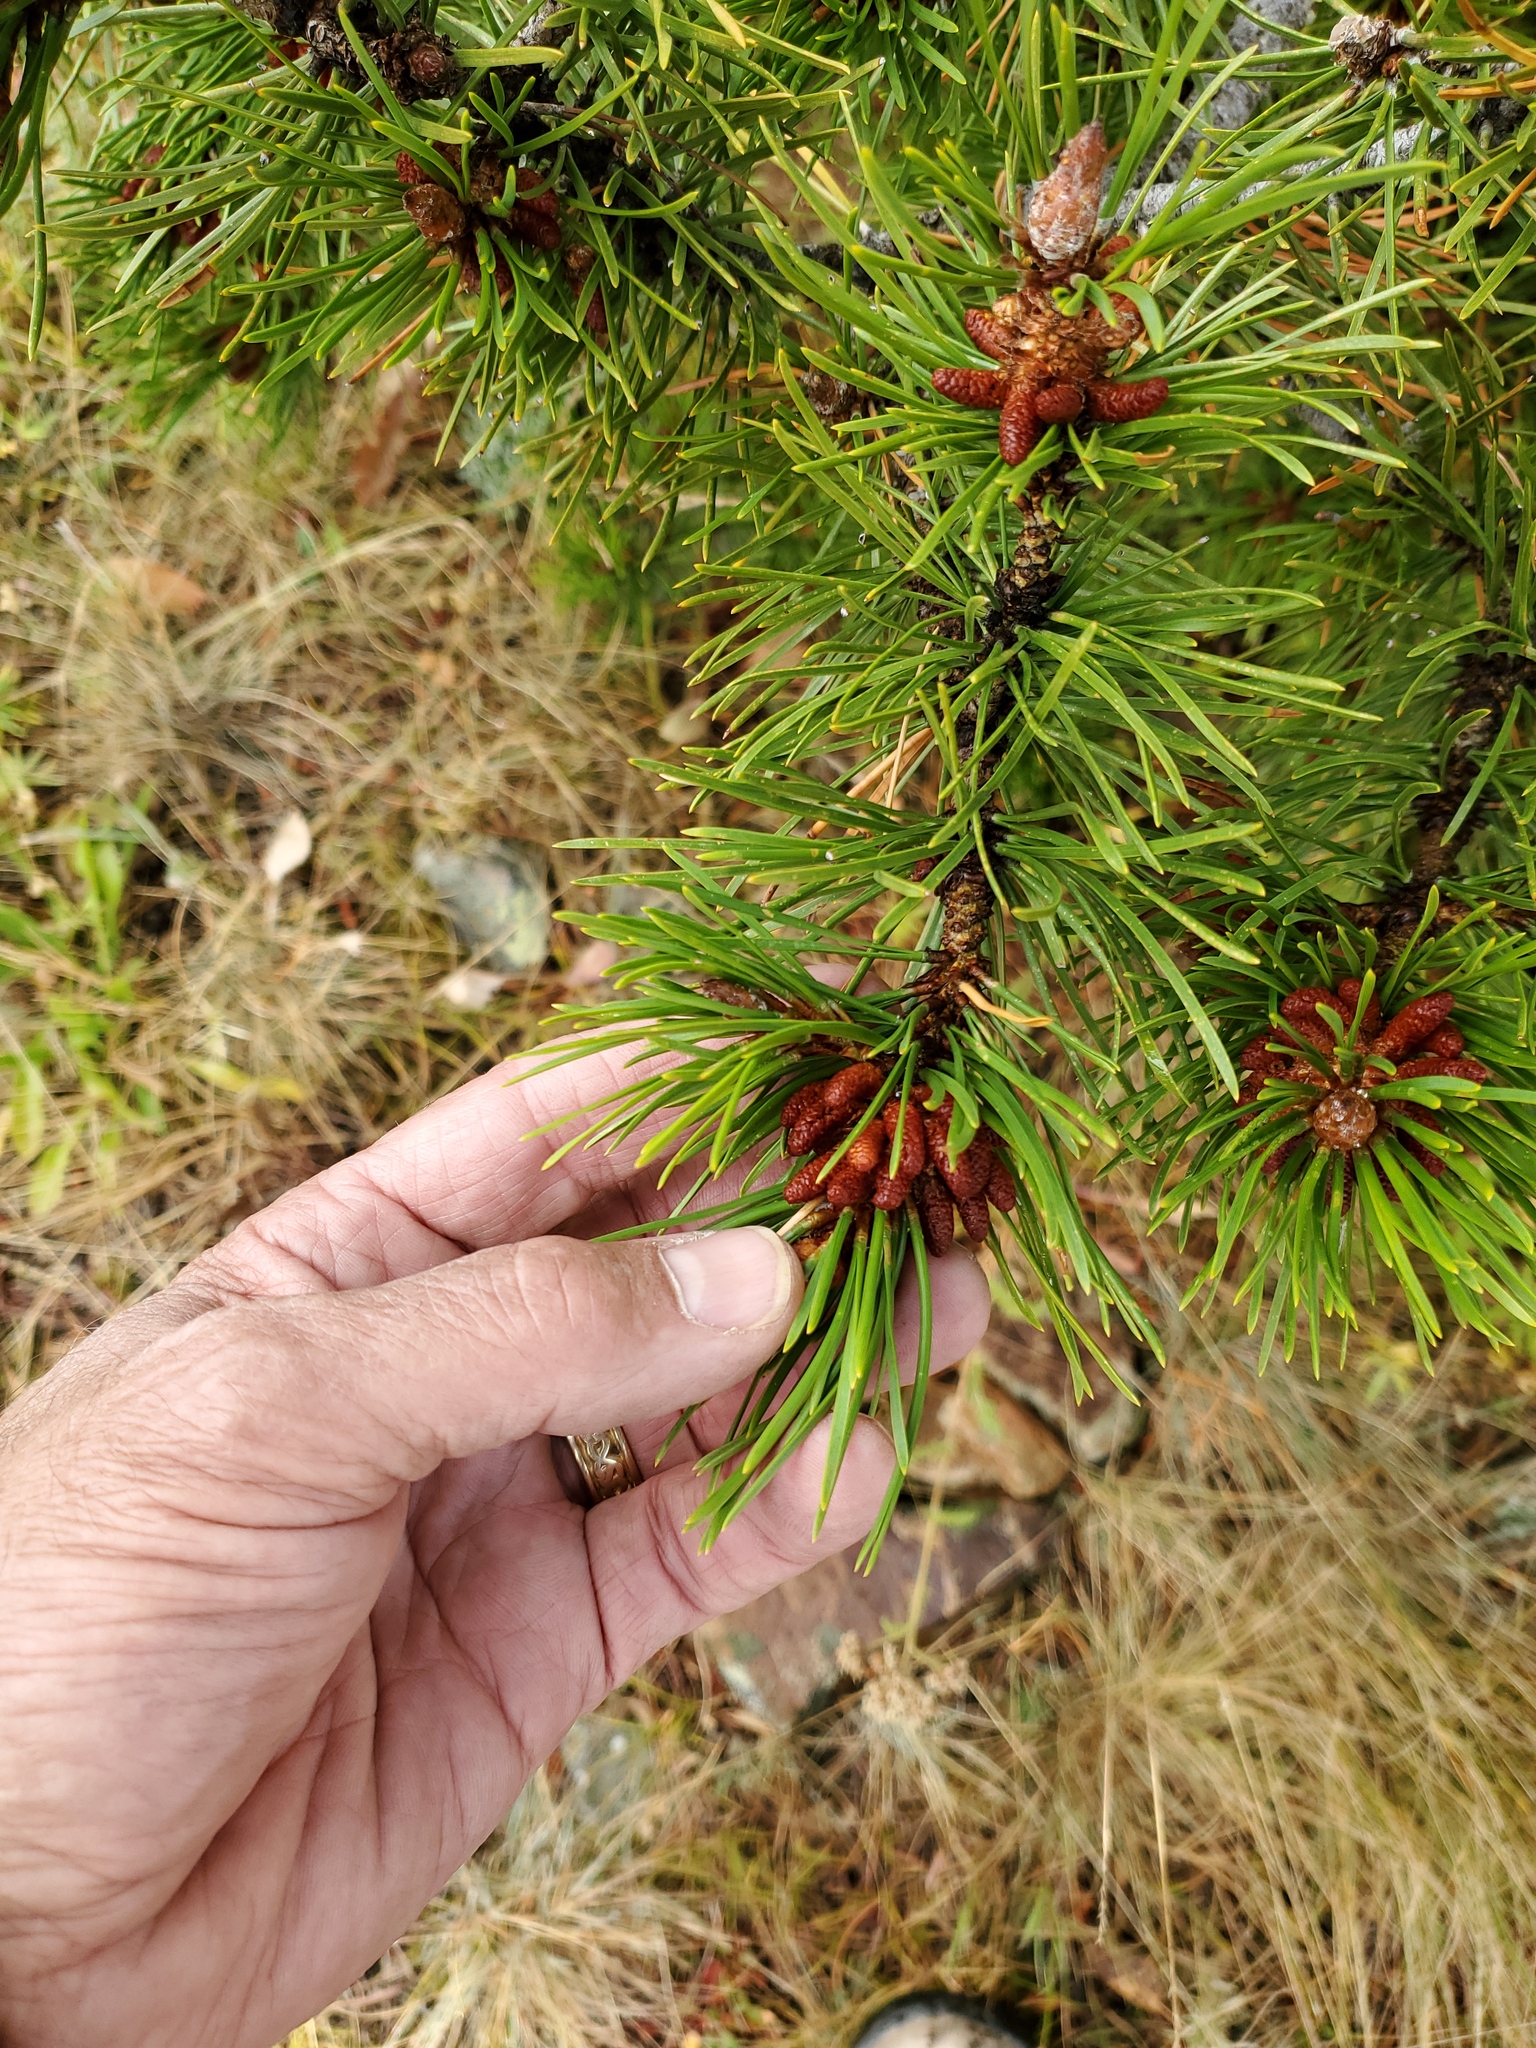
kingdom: Plantae
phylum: Tracheophyta
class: Pinopsida
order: Pinales
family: Pinaceae
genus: Pinus
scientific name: Pinus contorta
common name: Lodgepole pine
